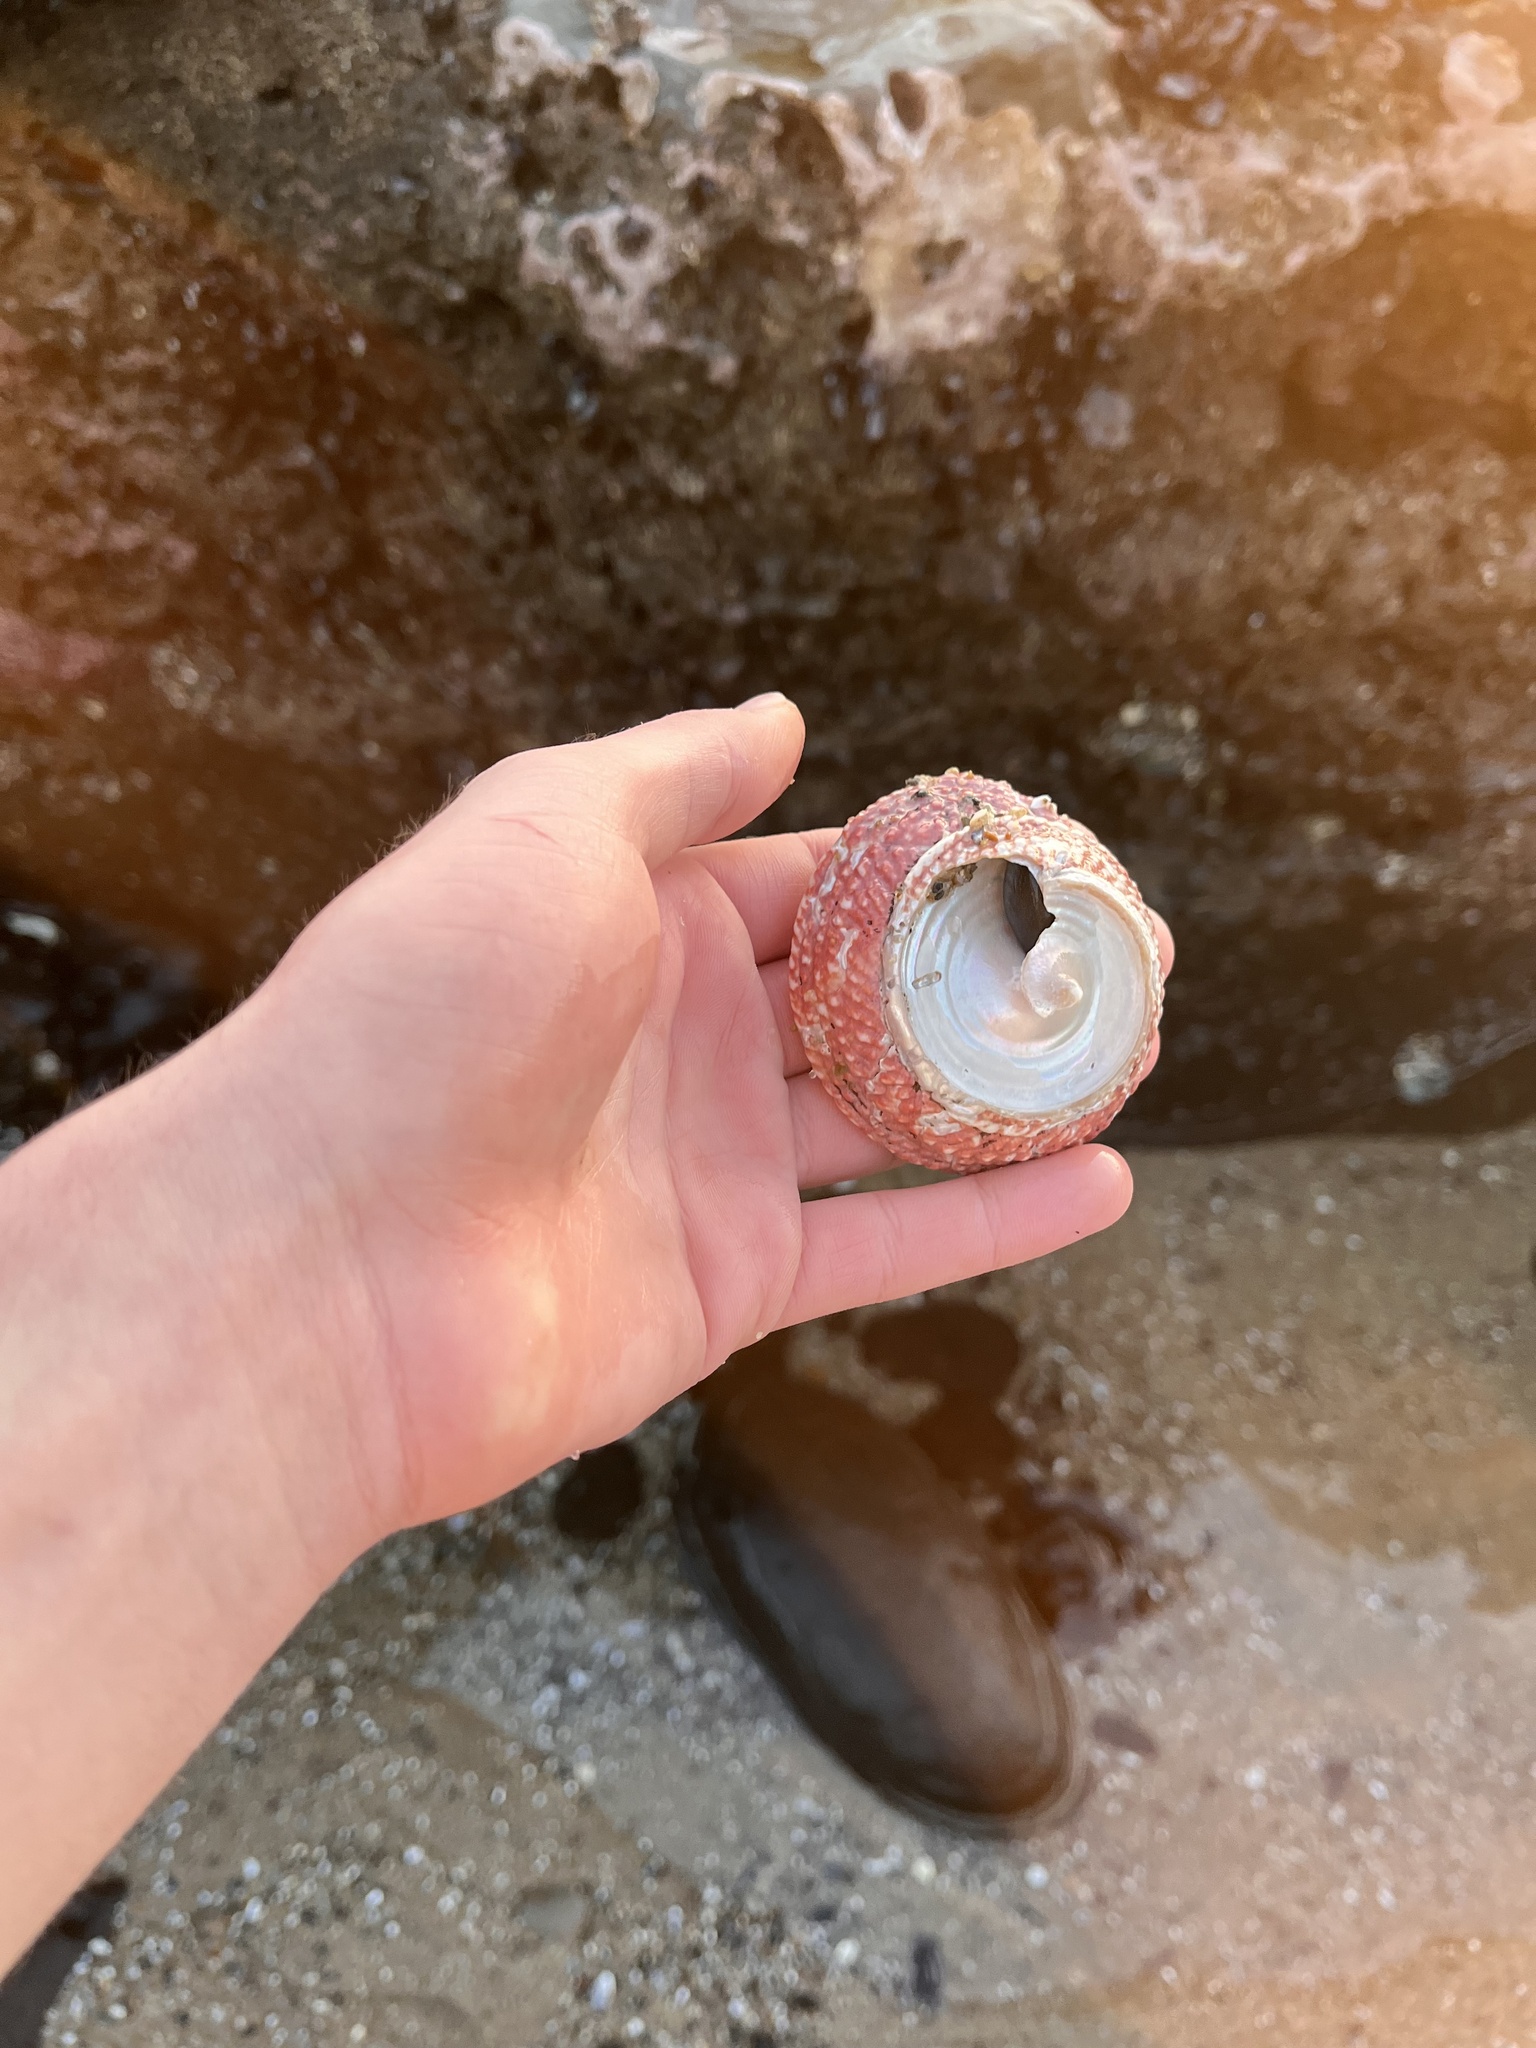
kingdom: Animalia
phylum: Mollusca
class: Gastropoda
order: Trochida
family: Turbinidae
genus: Pomaulax
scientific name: Pomaulax gibberosus
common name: Red turban
